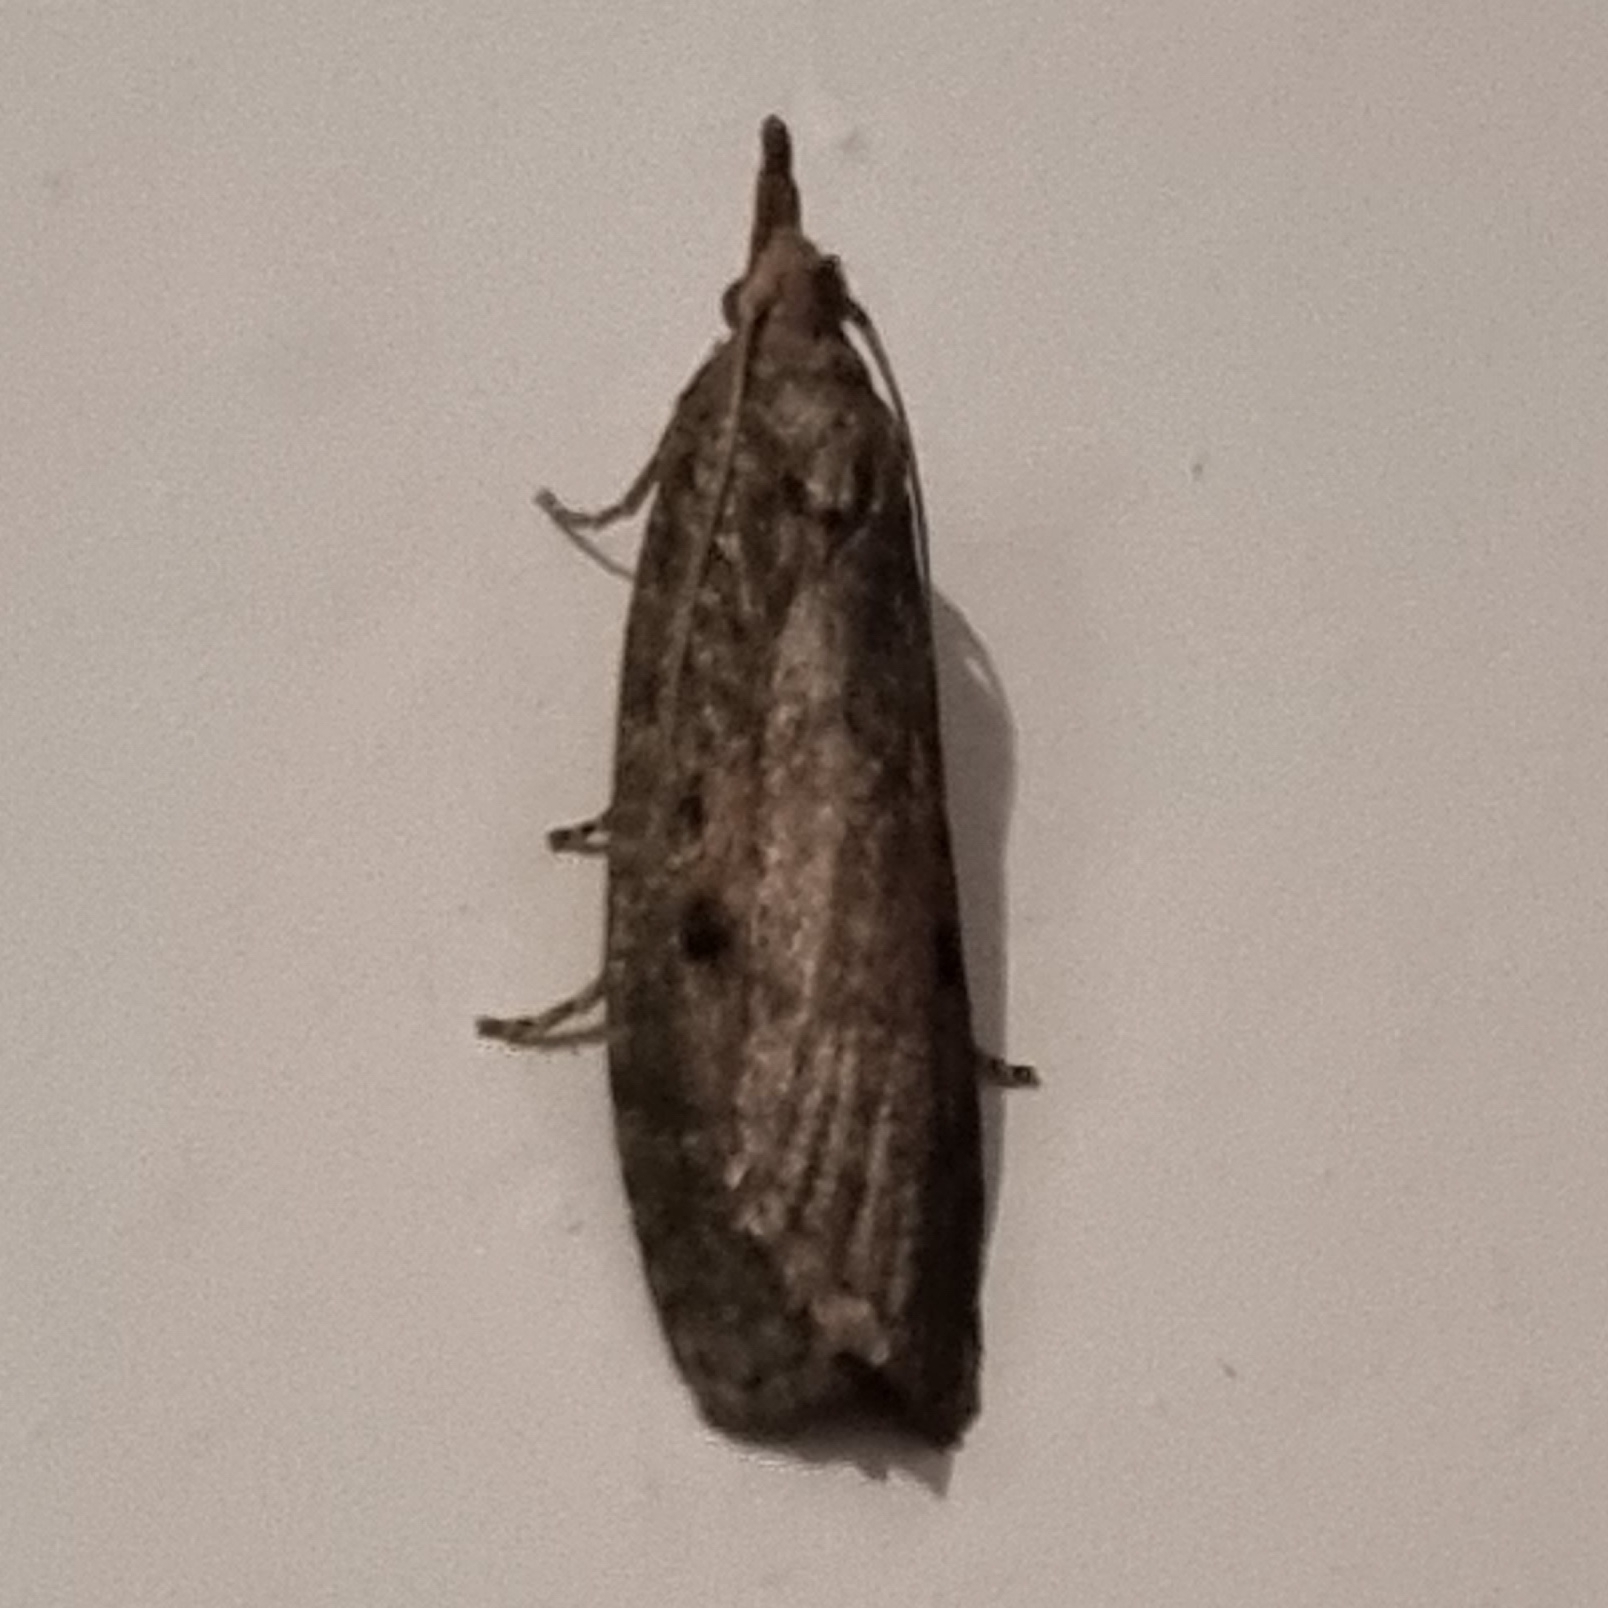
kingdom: Animalia
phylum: Arthropoda
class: Insecta
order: Lepidoptera
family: Pyralidae
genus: Aphomia
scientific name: Aphomia sociella
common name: Bee moth
